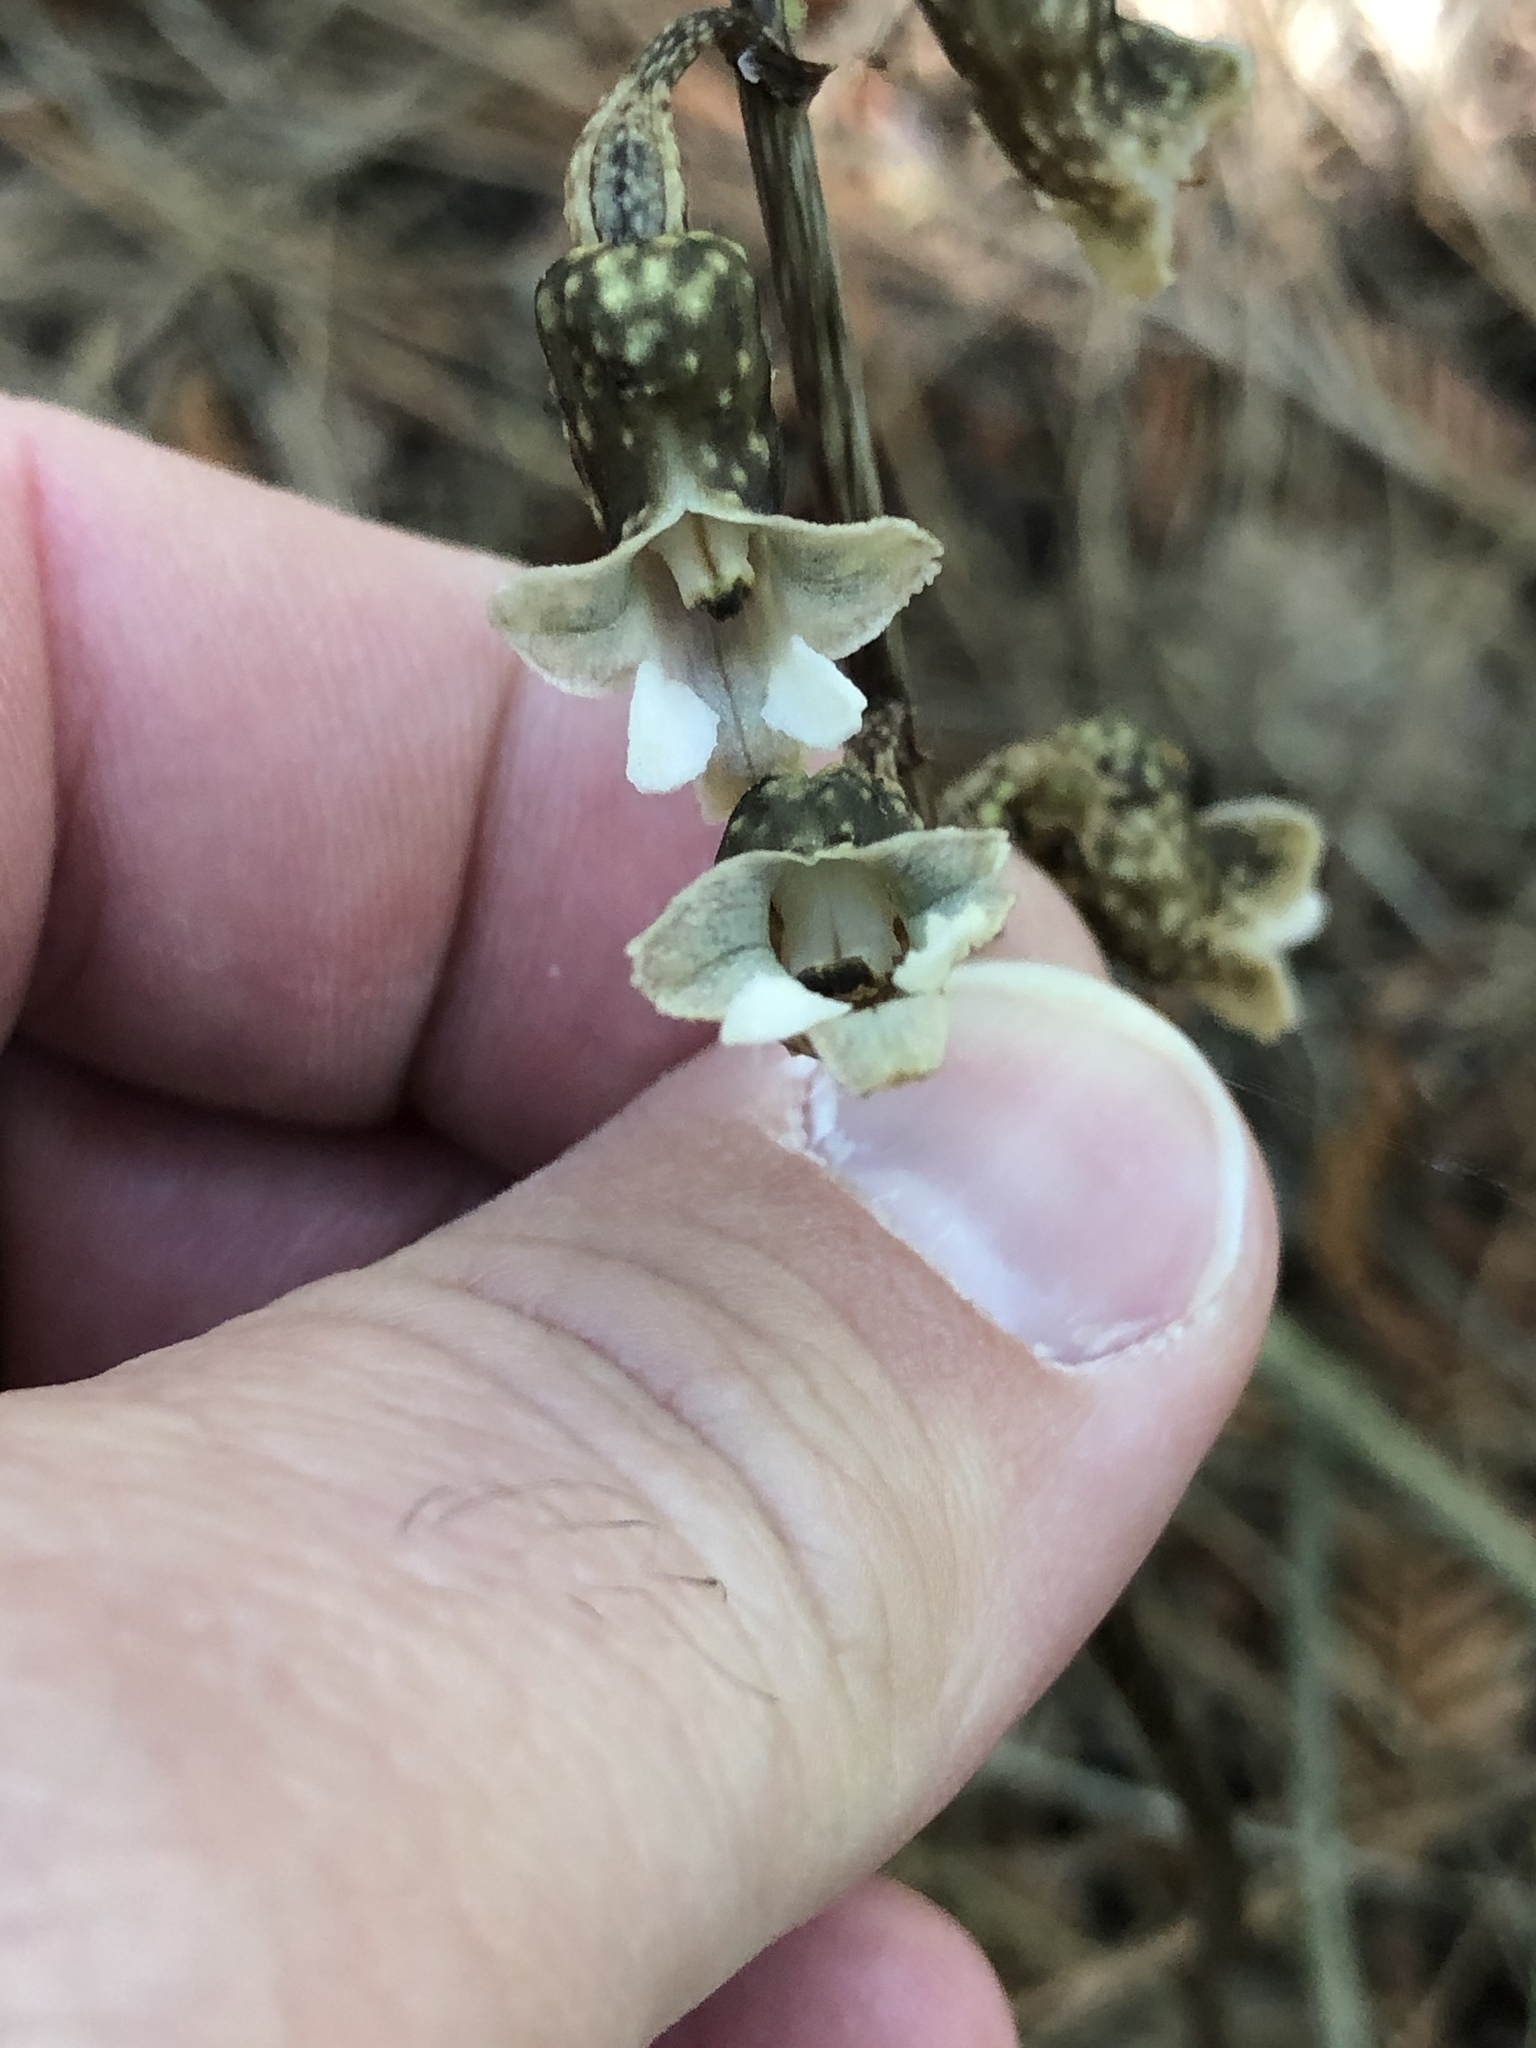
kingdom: Plantae
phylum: Tracheophyta
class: Liliopsida
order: Asparagales
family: Orchidaceae
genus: Gastrodia
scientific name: Gastrodia cunninghamii
